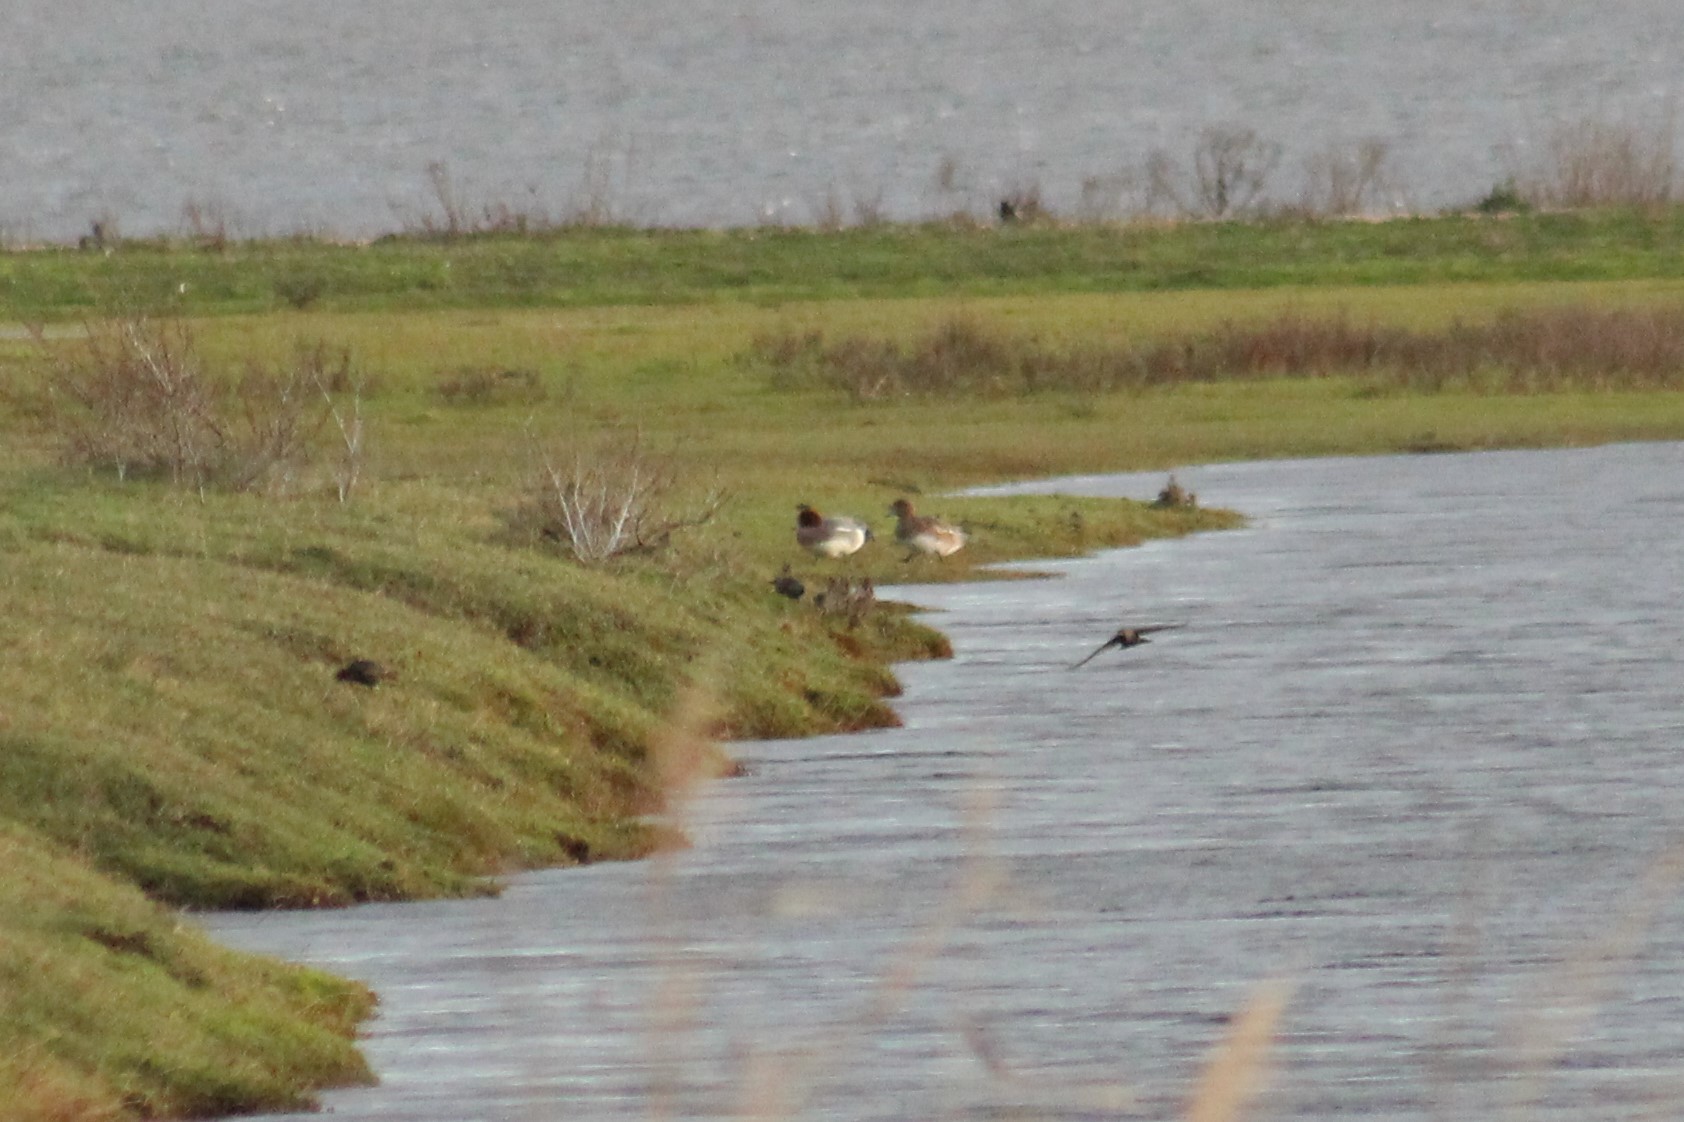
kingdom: Animalia
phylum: Chordata
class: Aves
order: Anseriformes
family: Anatidae
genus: Mareca
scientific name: Mareca penelope
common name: Eurasian wigeon
